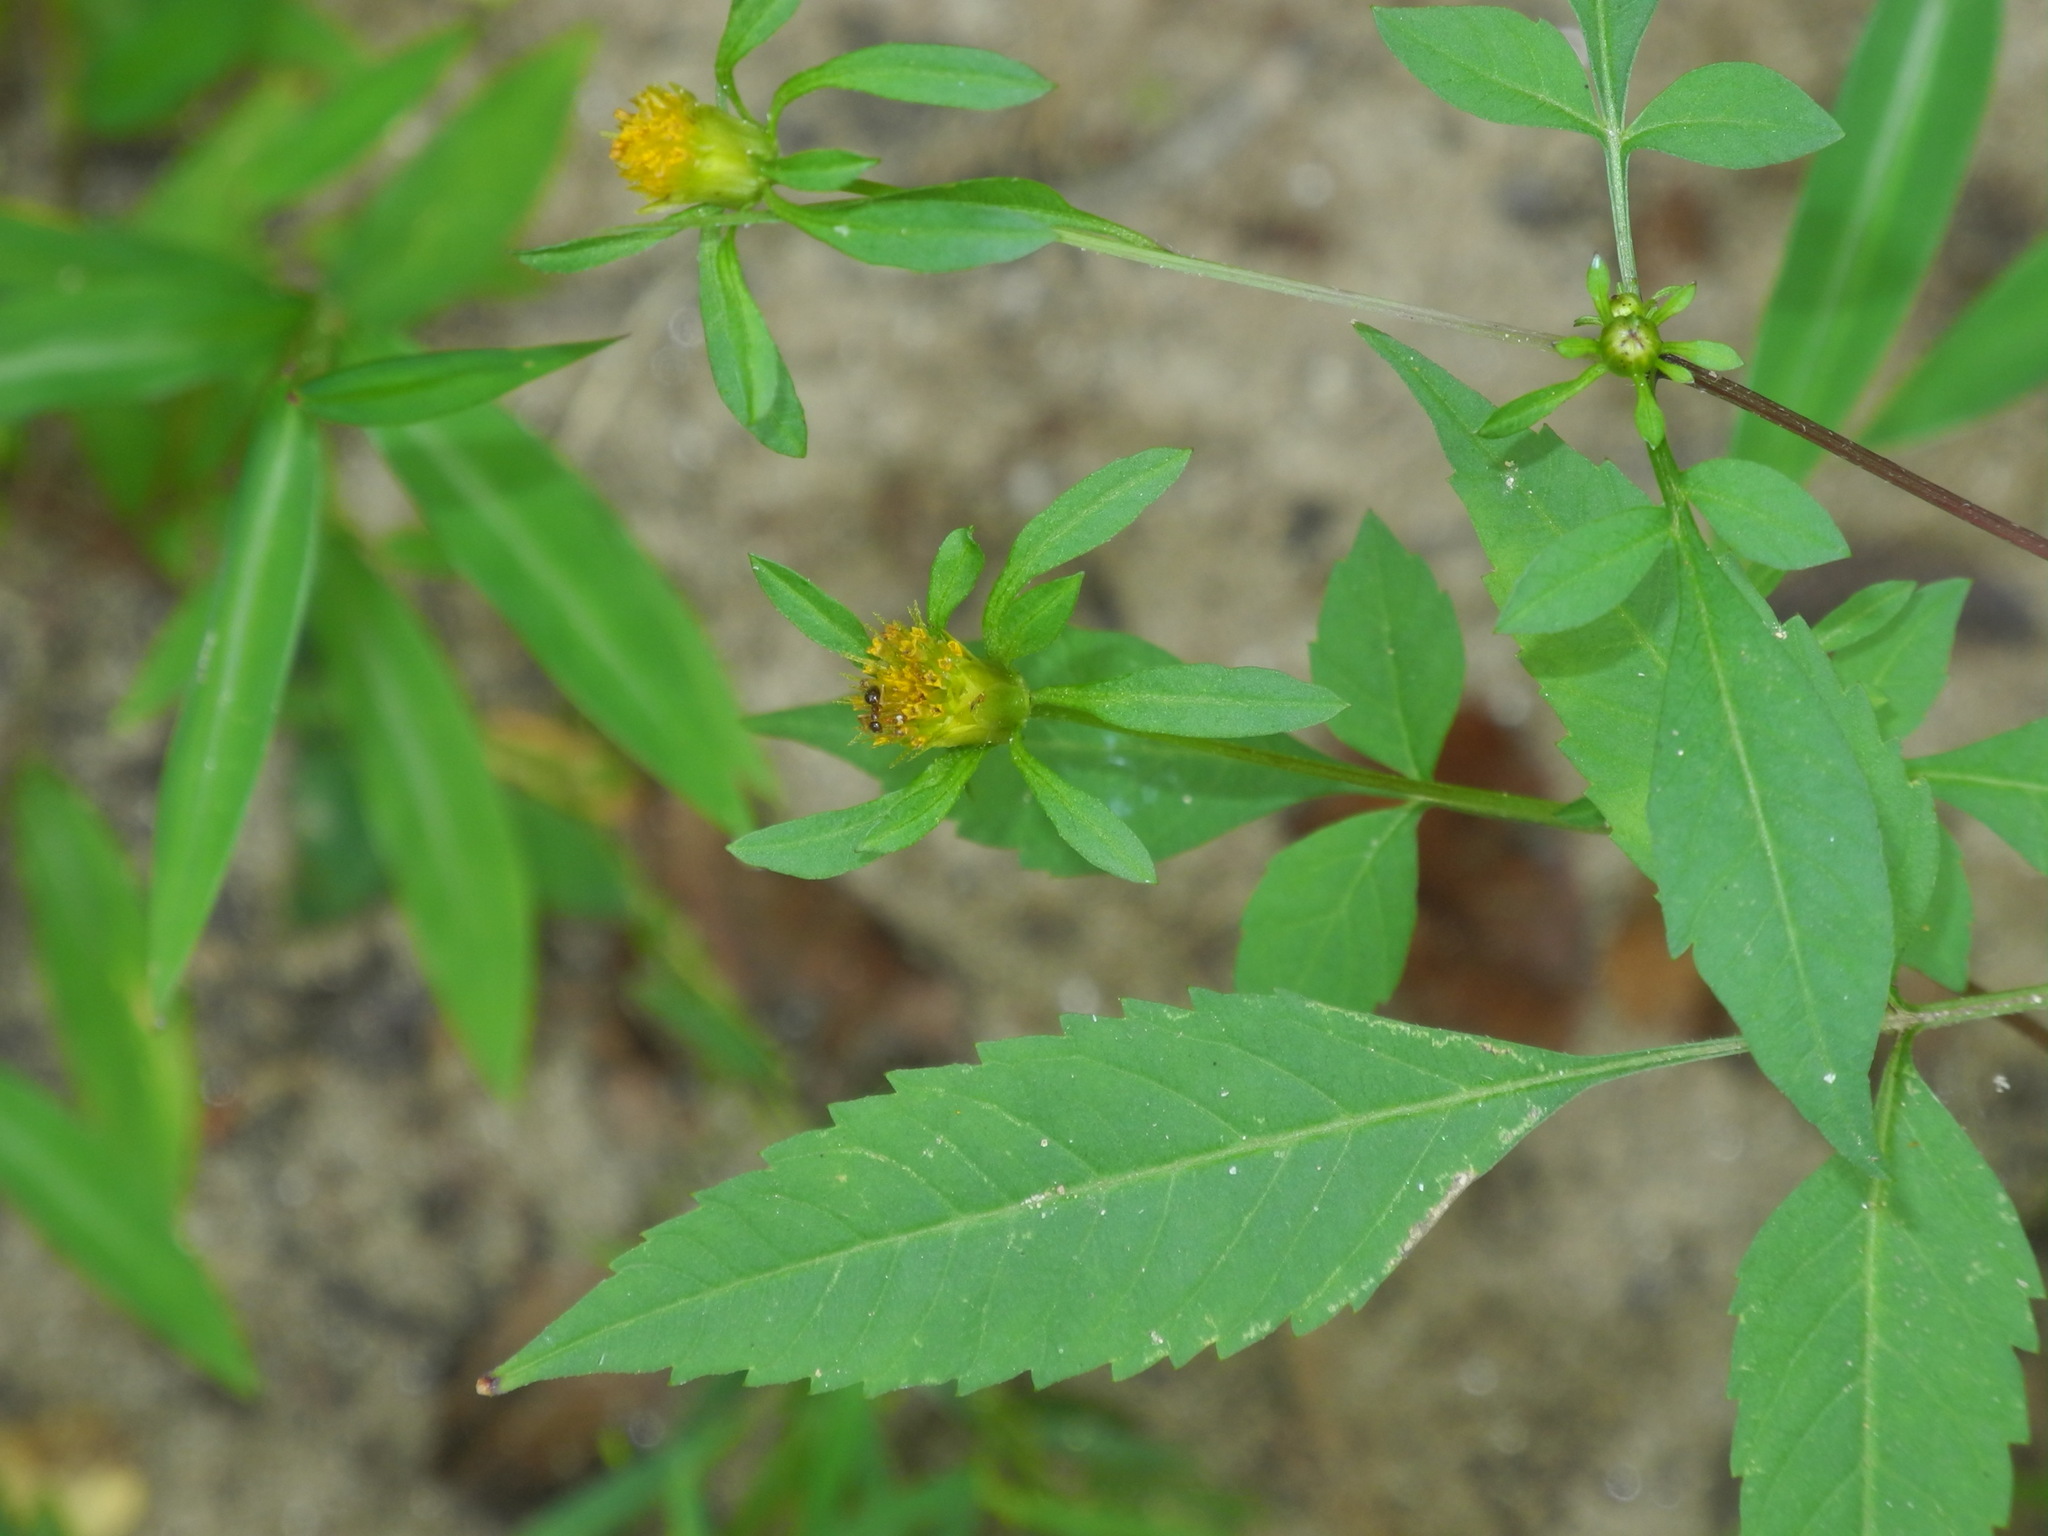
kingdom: Plantae
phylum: Tracheophyta
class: Magnoliopsida
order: Asterales
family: Asteraceae
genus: Bidens
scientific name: Bidens frondosa
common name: Beggarticks
